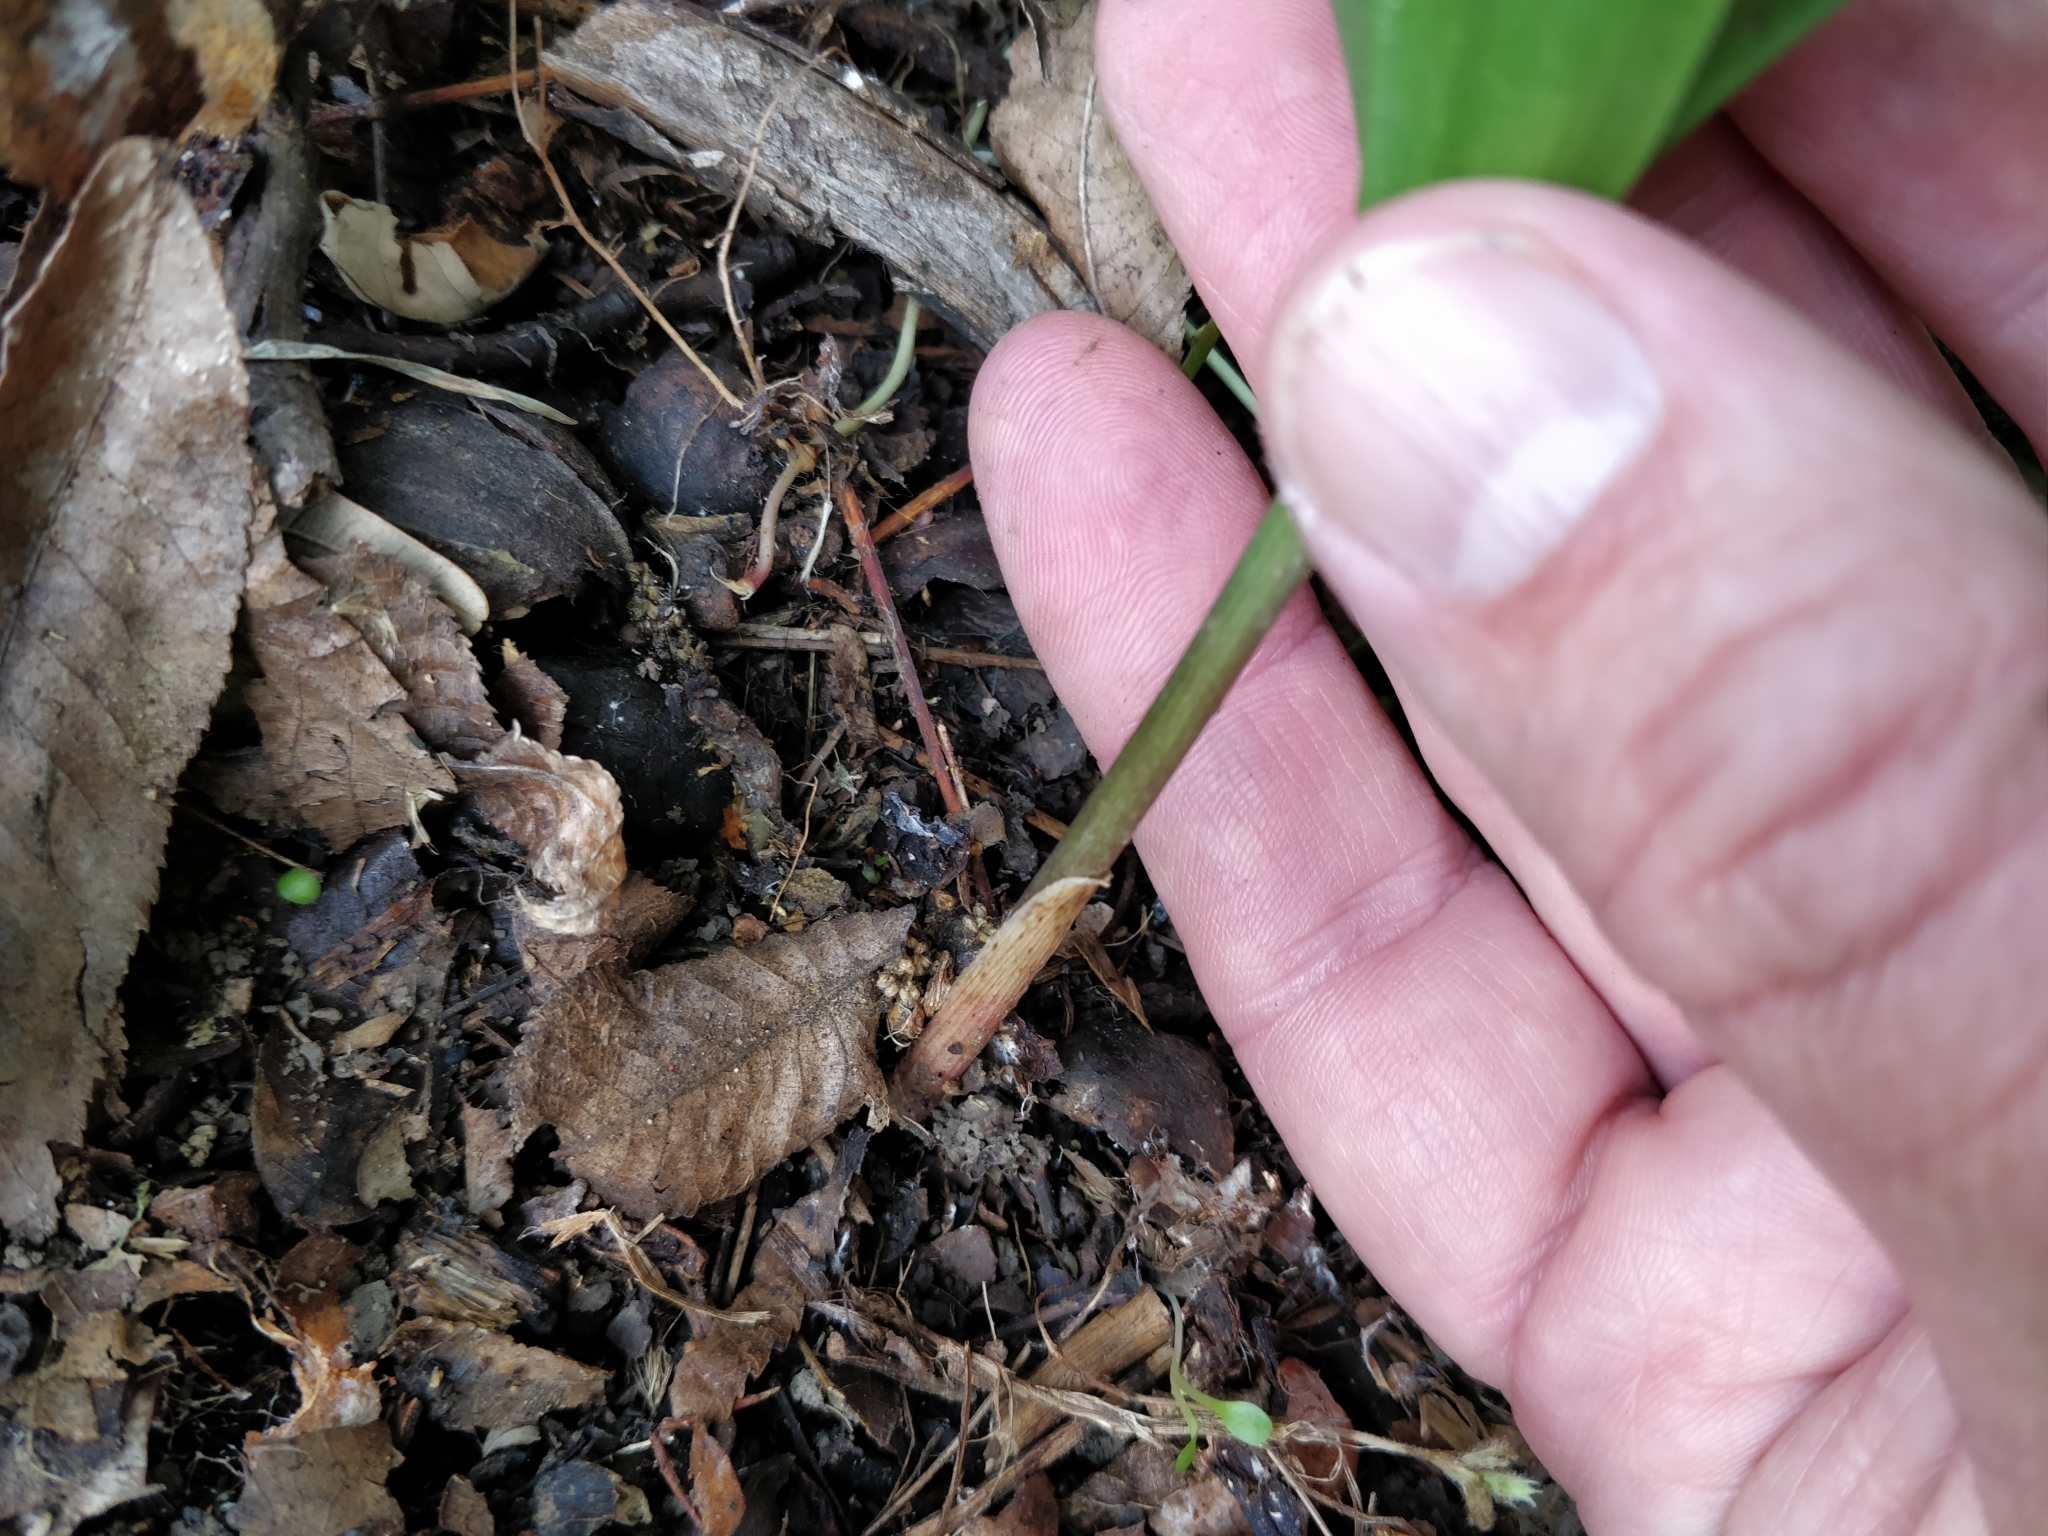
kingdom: Plantae
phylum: Tracheophyta
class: Liliopsida
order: Asparagales
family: Asparagaceae
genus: Convallaria
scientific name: Convallaria majalis
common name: Lily-of-the-valley
